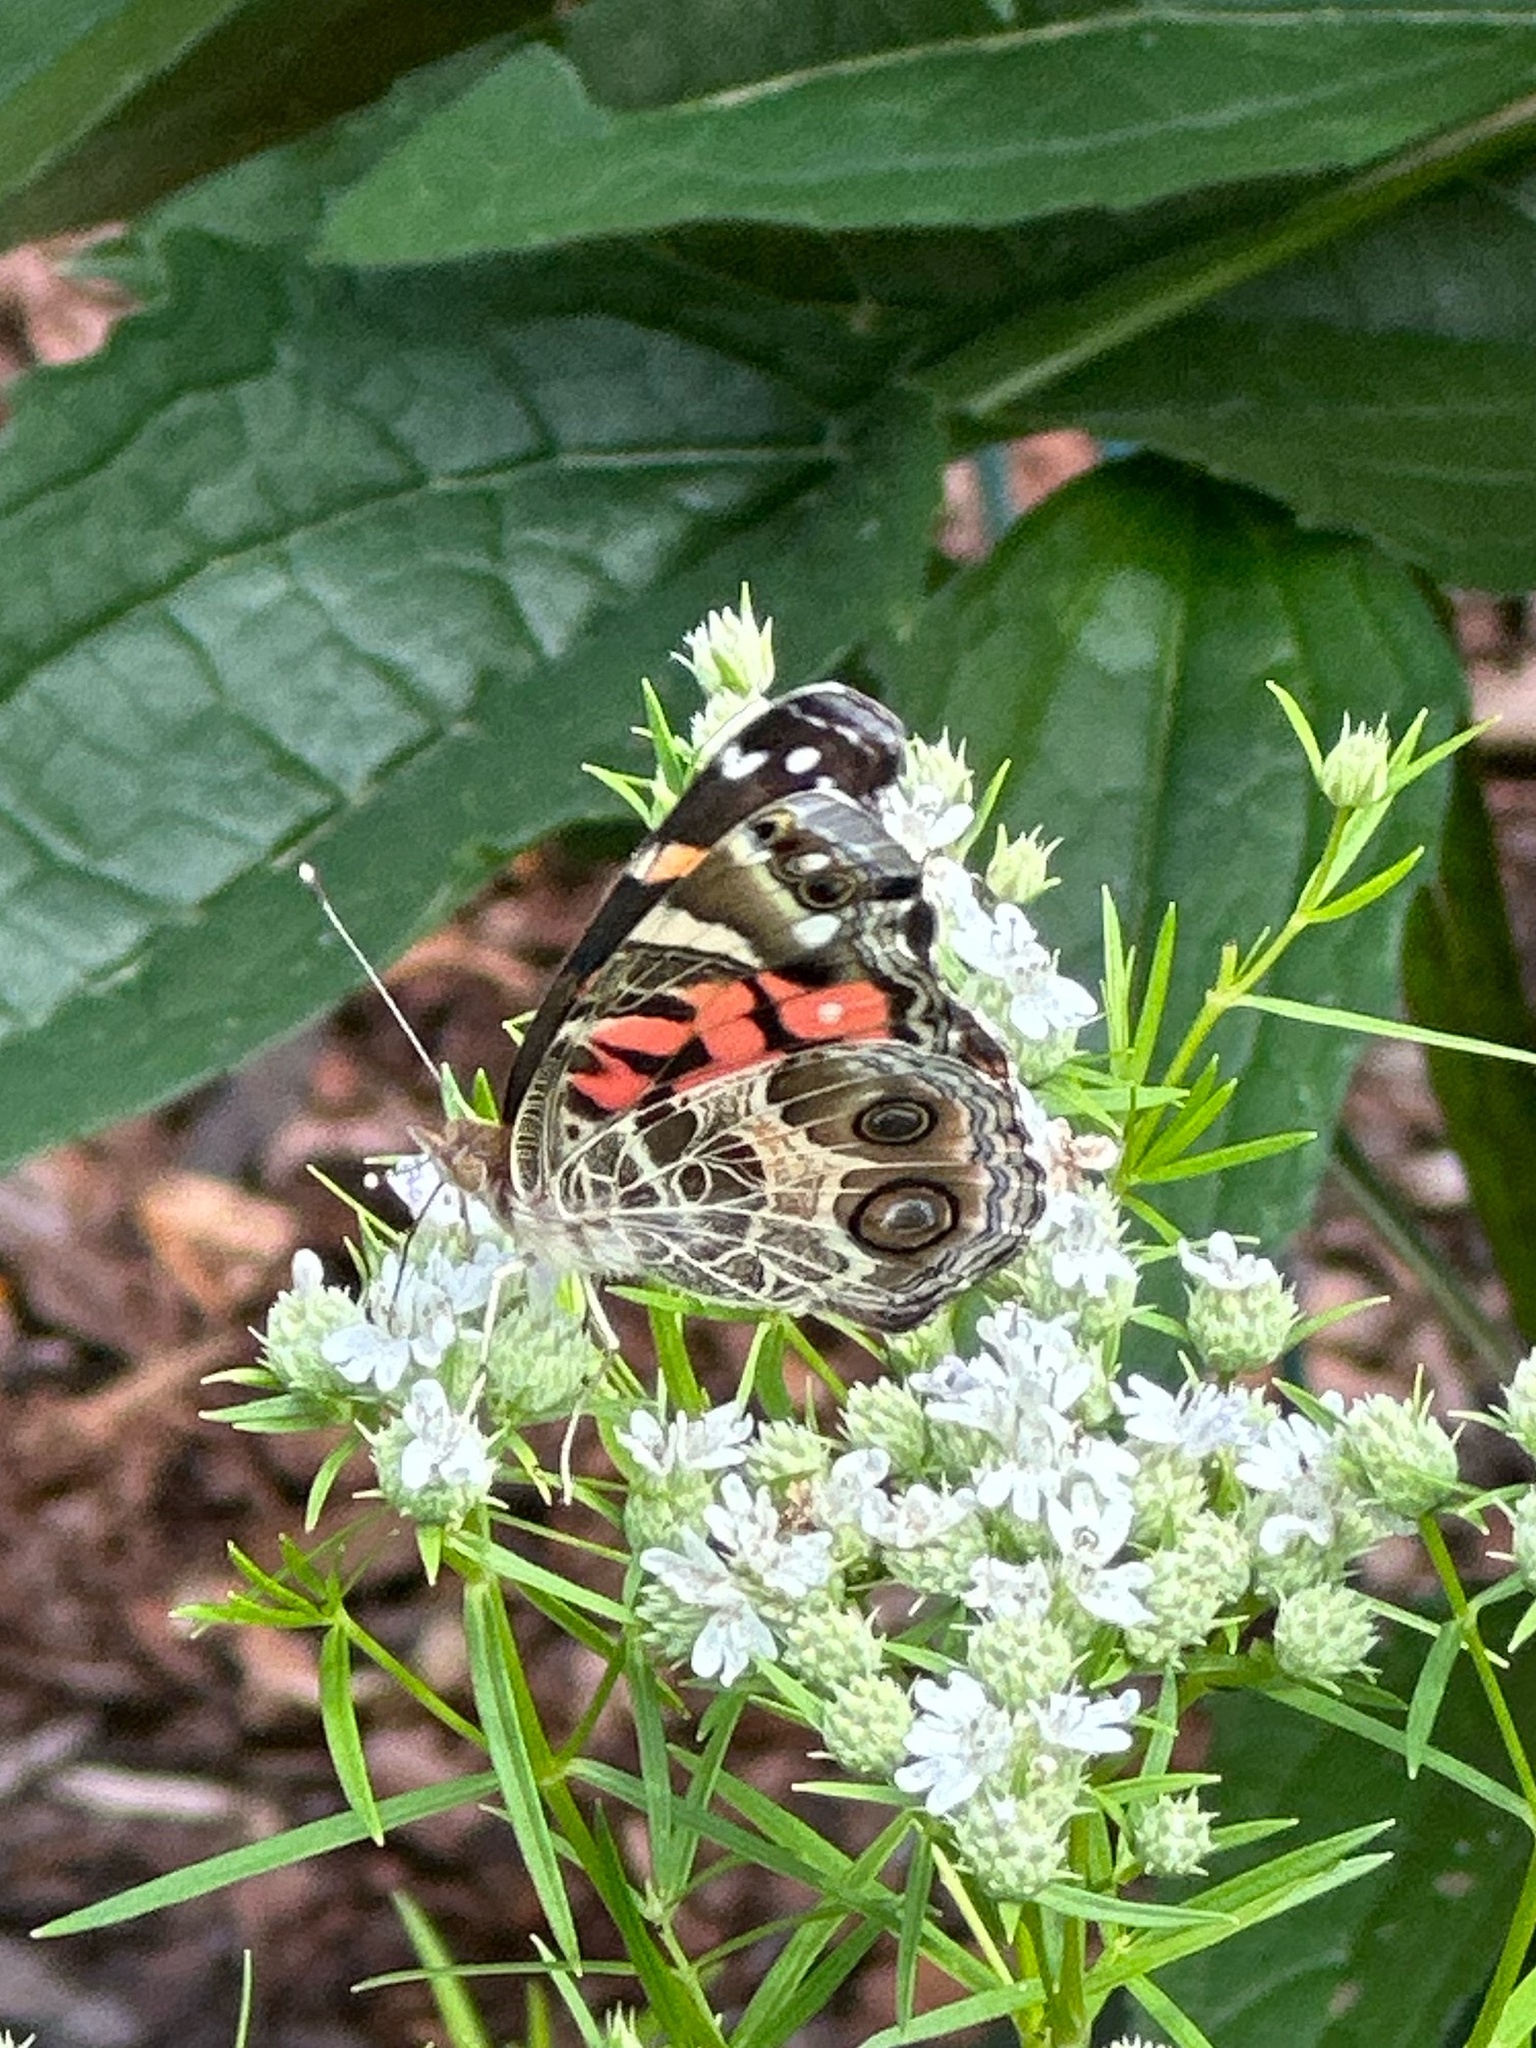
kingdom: Animalia
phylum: Arthropoda
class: Insecta
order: Lepidoptera
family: Nymphalidae
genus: Vanessa
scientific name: Vanessa virginiensis
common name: American lady
